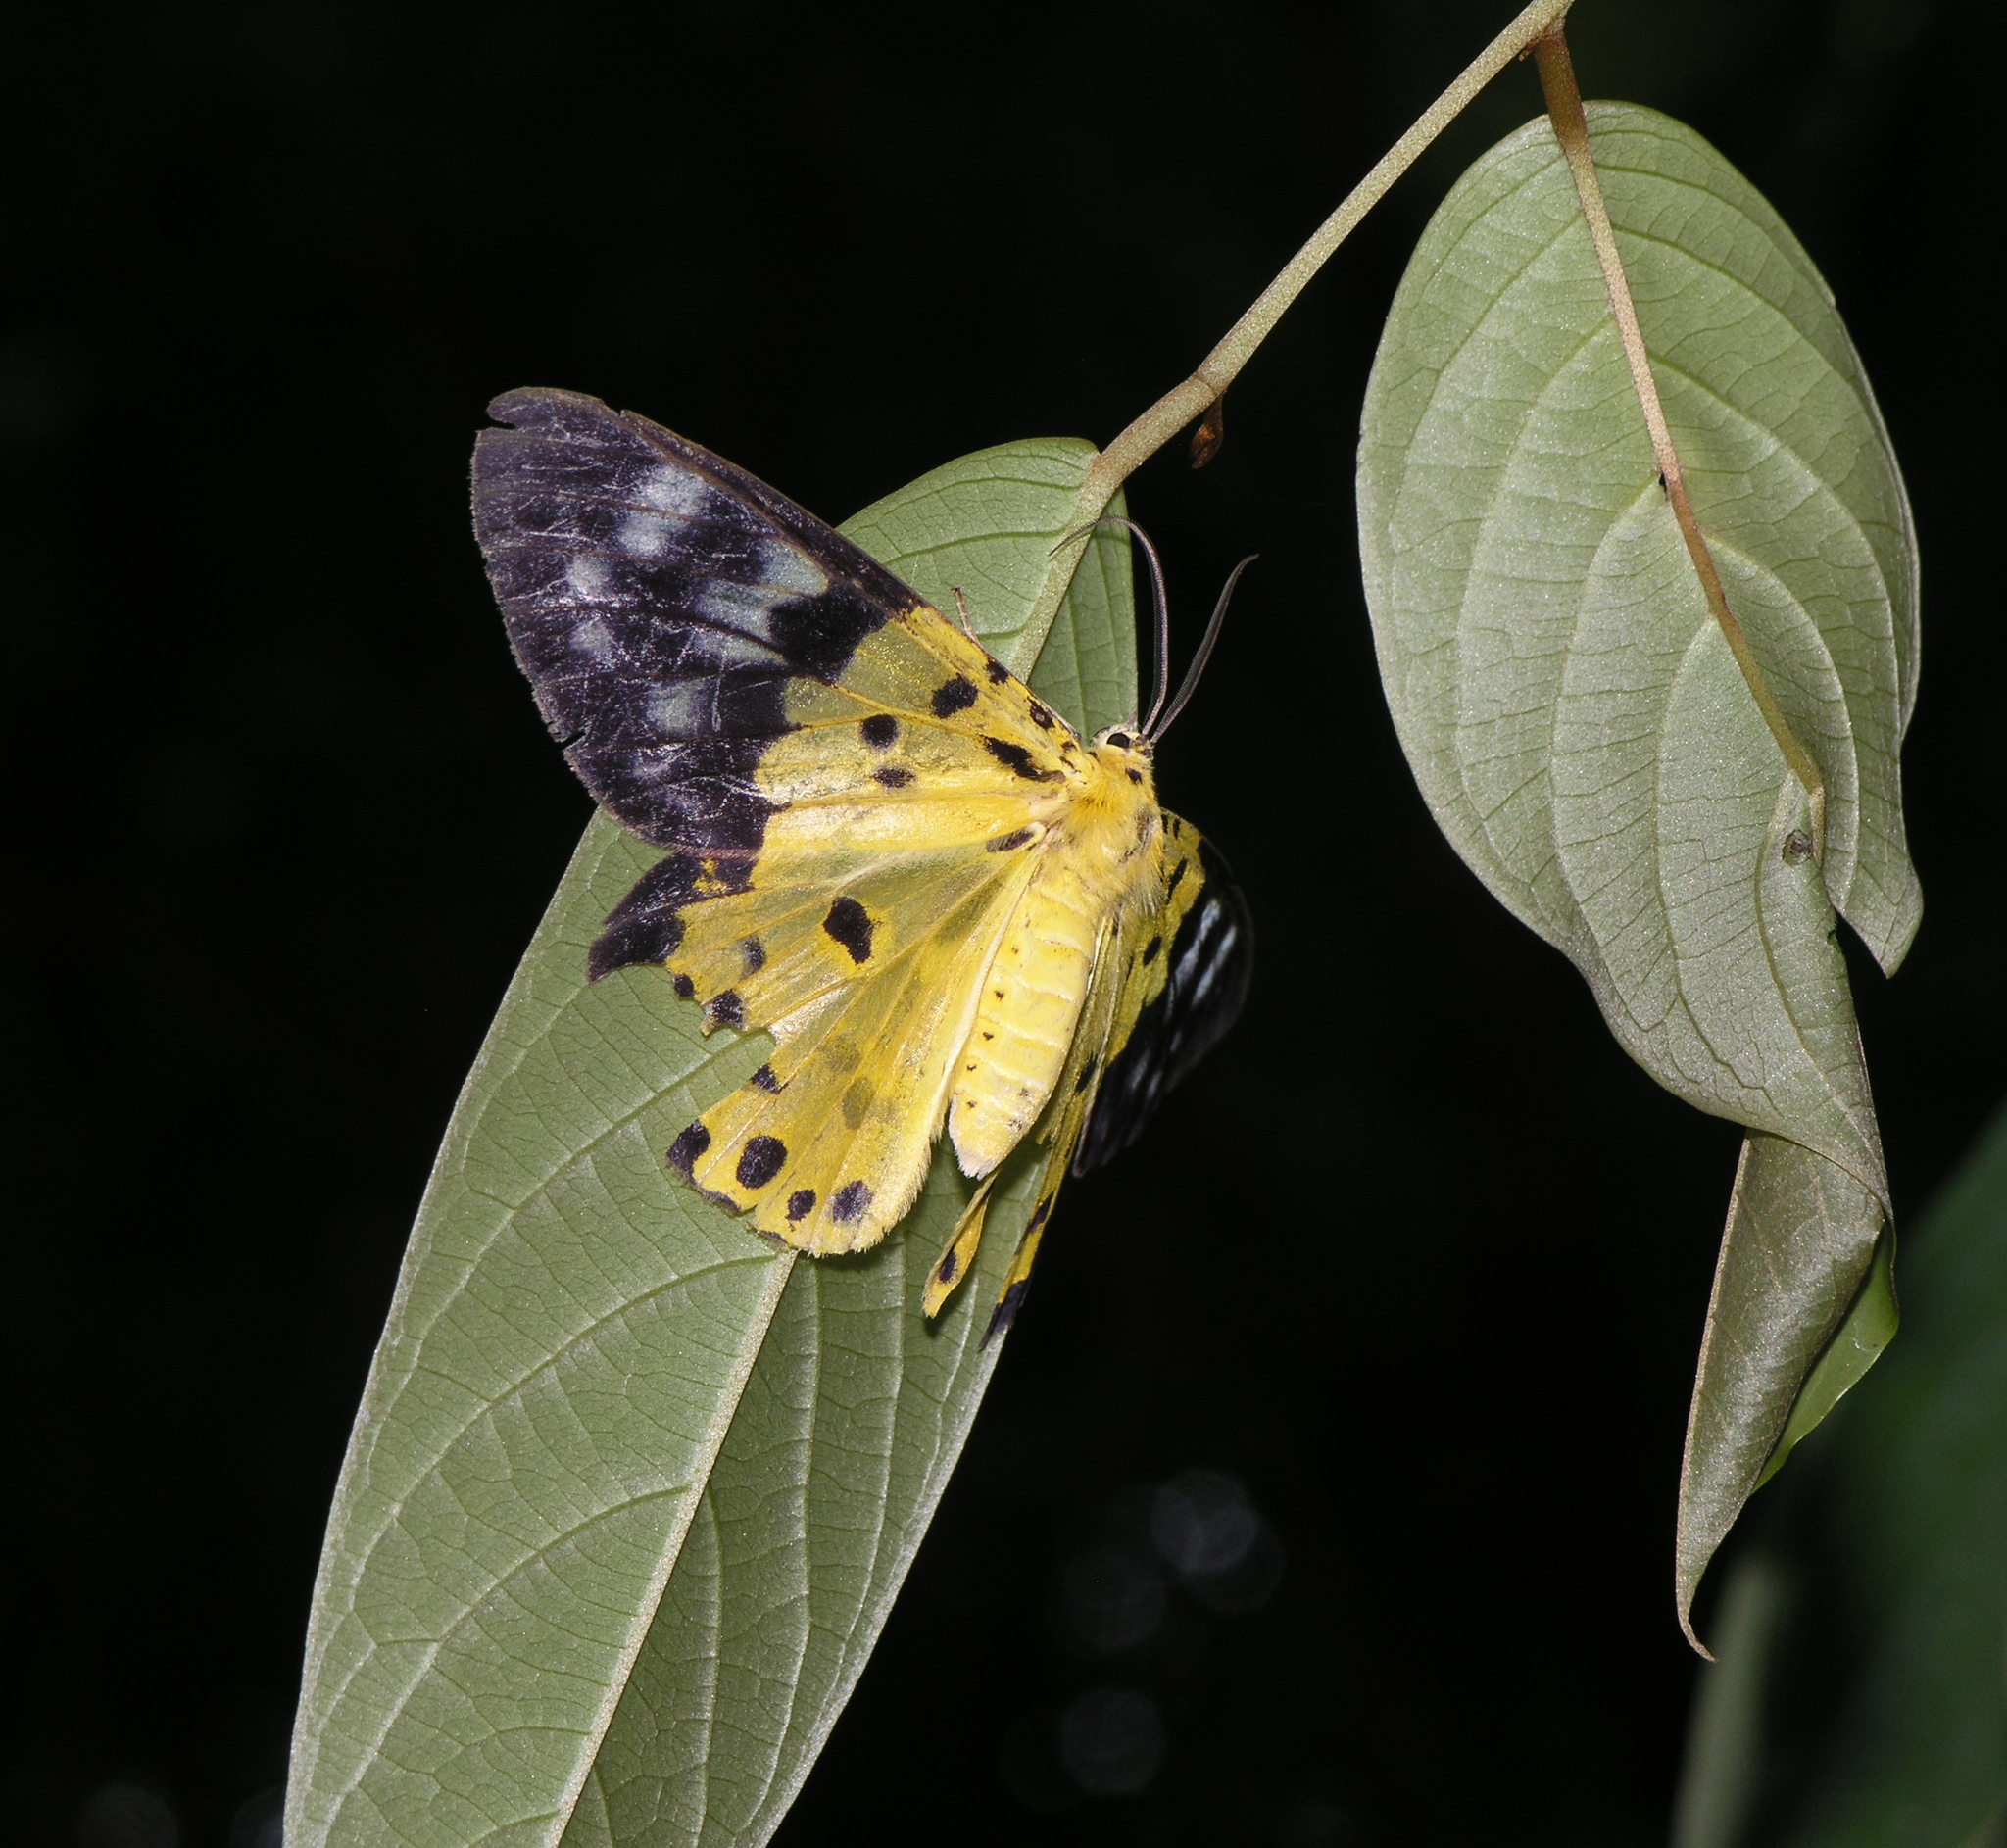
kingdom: Animalia
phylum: Arthropoda
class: Insecta
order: Lepidoptera
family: Geometridae
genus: Dysphania
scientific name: Dysphania sagana
